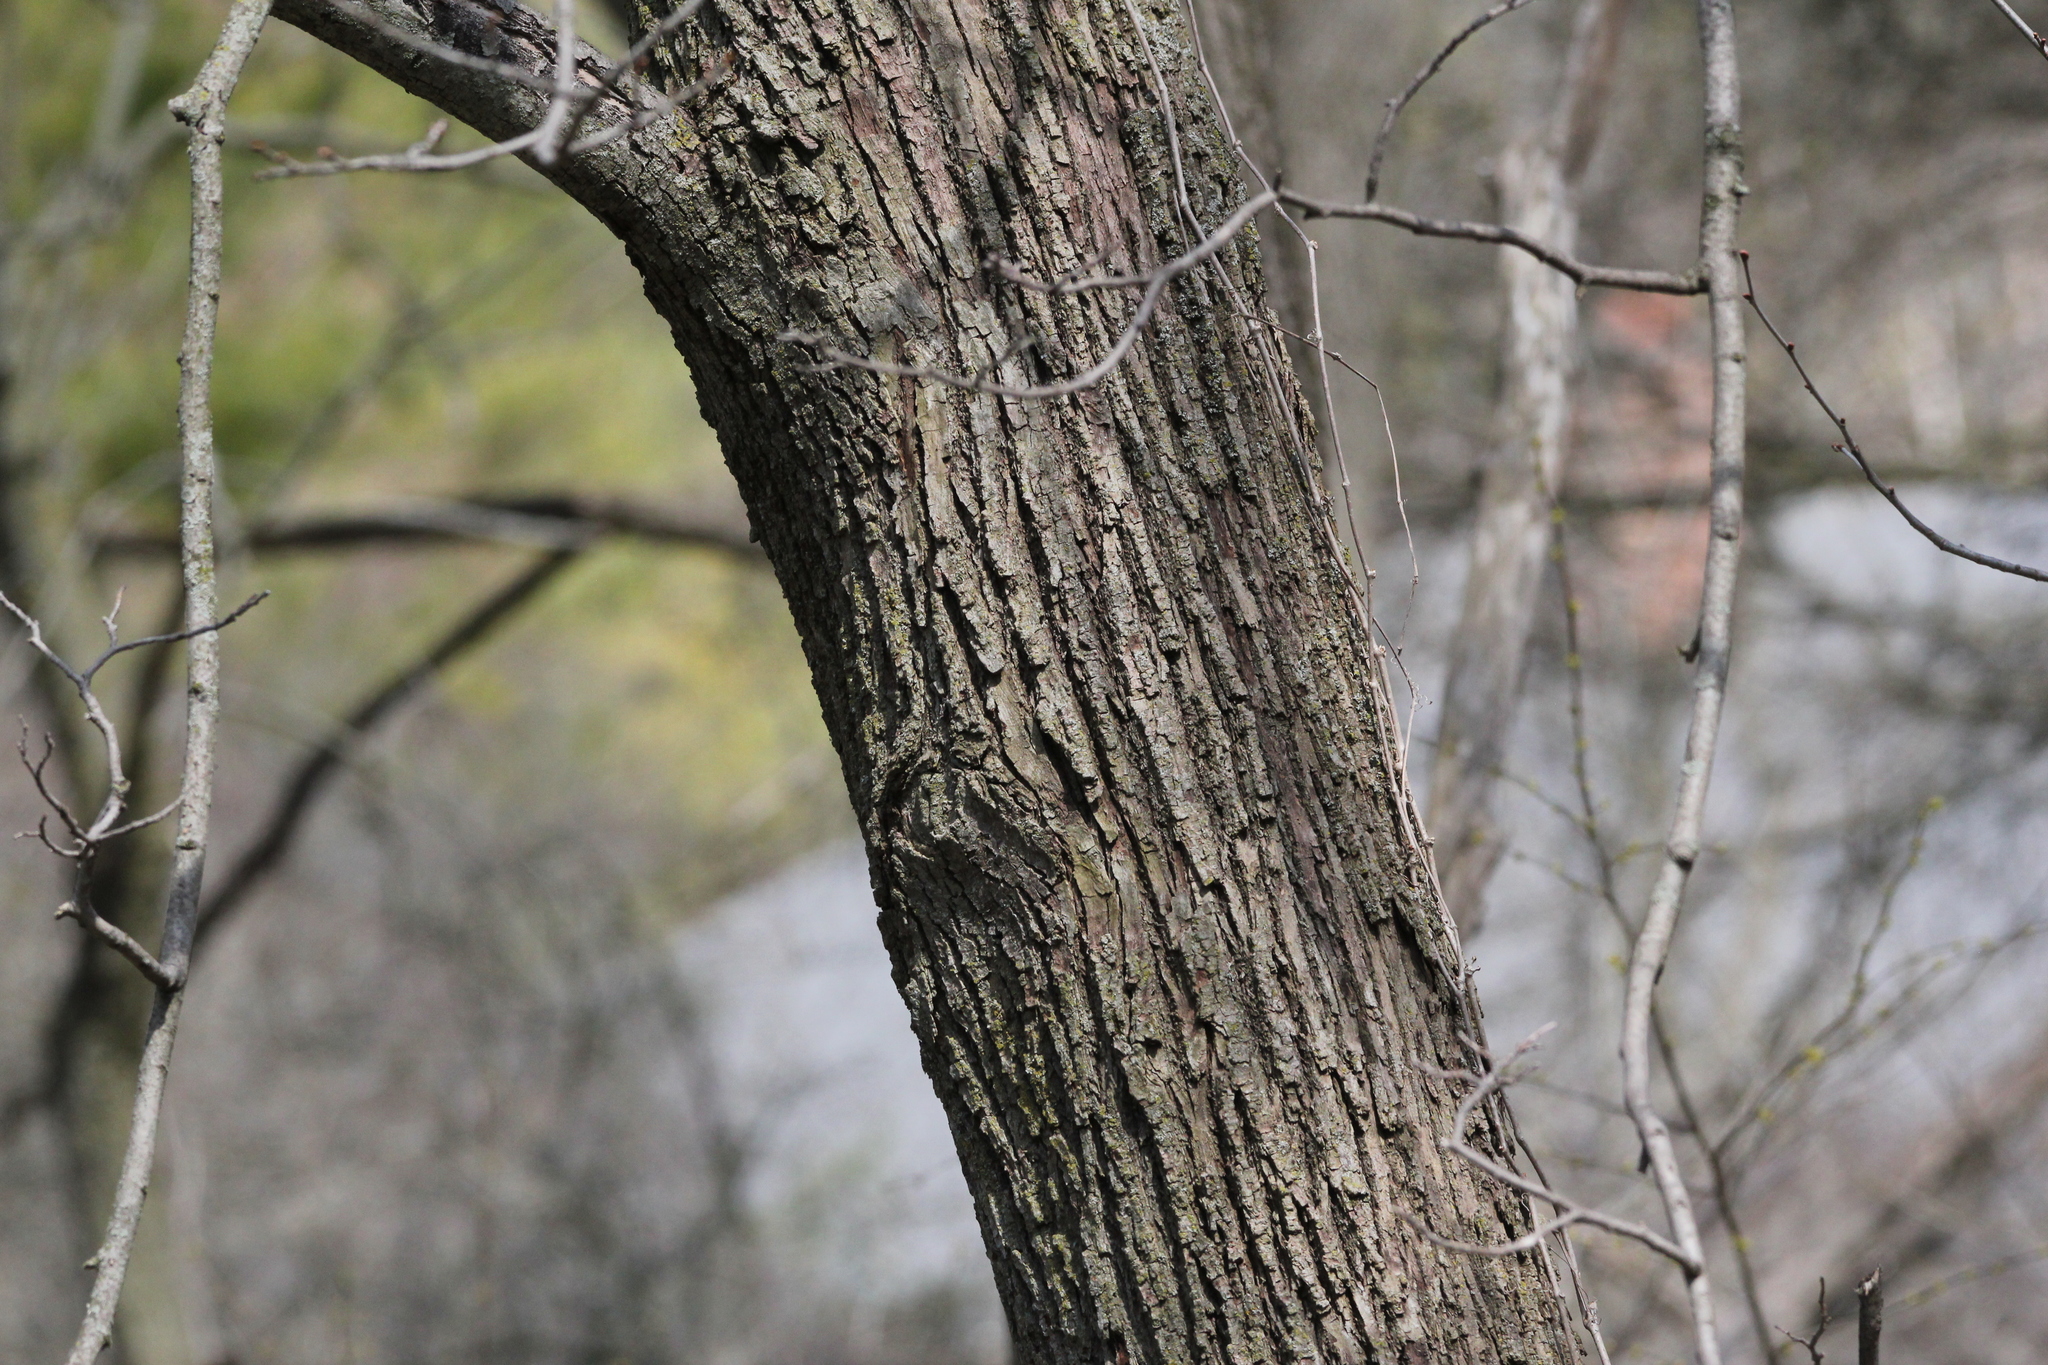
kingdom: Plantae
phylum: Tracheophyta
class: Magnoliopsida
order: Malvales
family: Malvaceae
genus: Tilia
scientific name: Tilia americana
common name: Basswood
